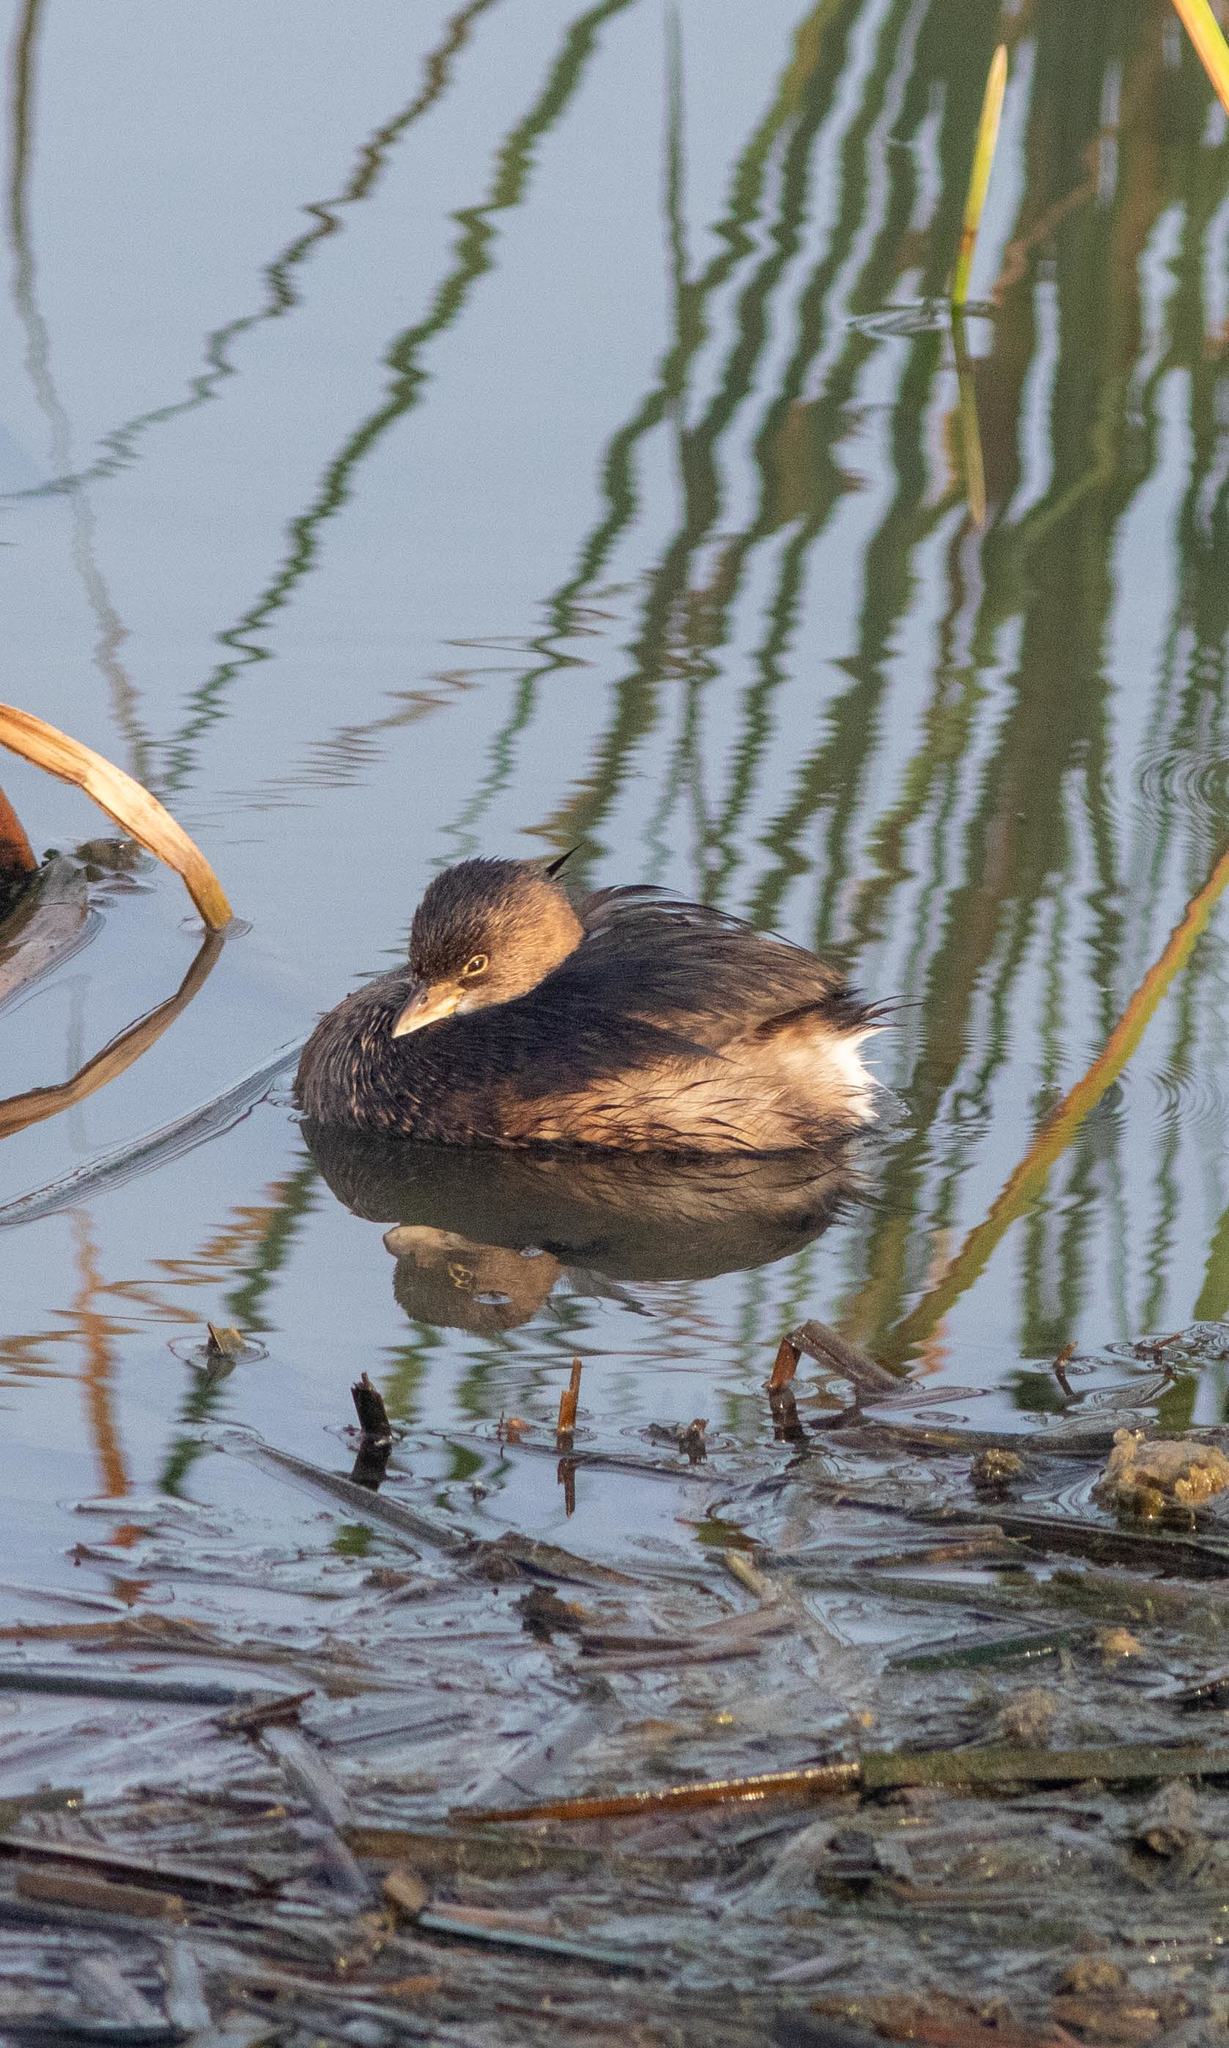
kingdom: Animalia
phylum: Chordata
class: Aves
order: Podicipediformes
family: Podicipedidae
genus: Podilymbus
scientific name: Podilymbus podiceps
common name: Pied-billed grebe
